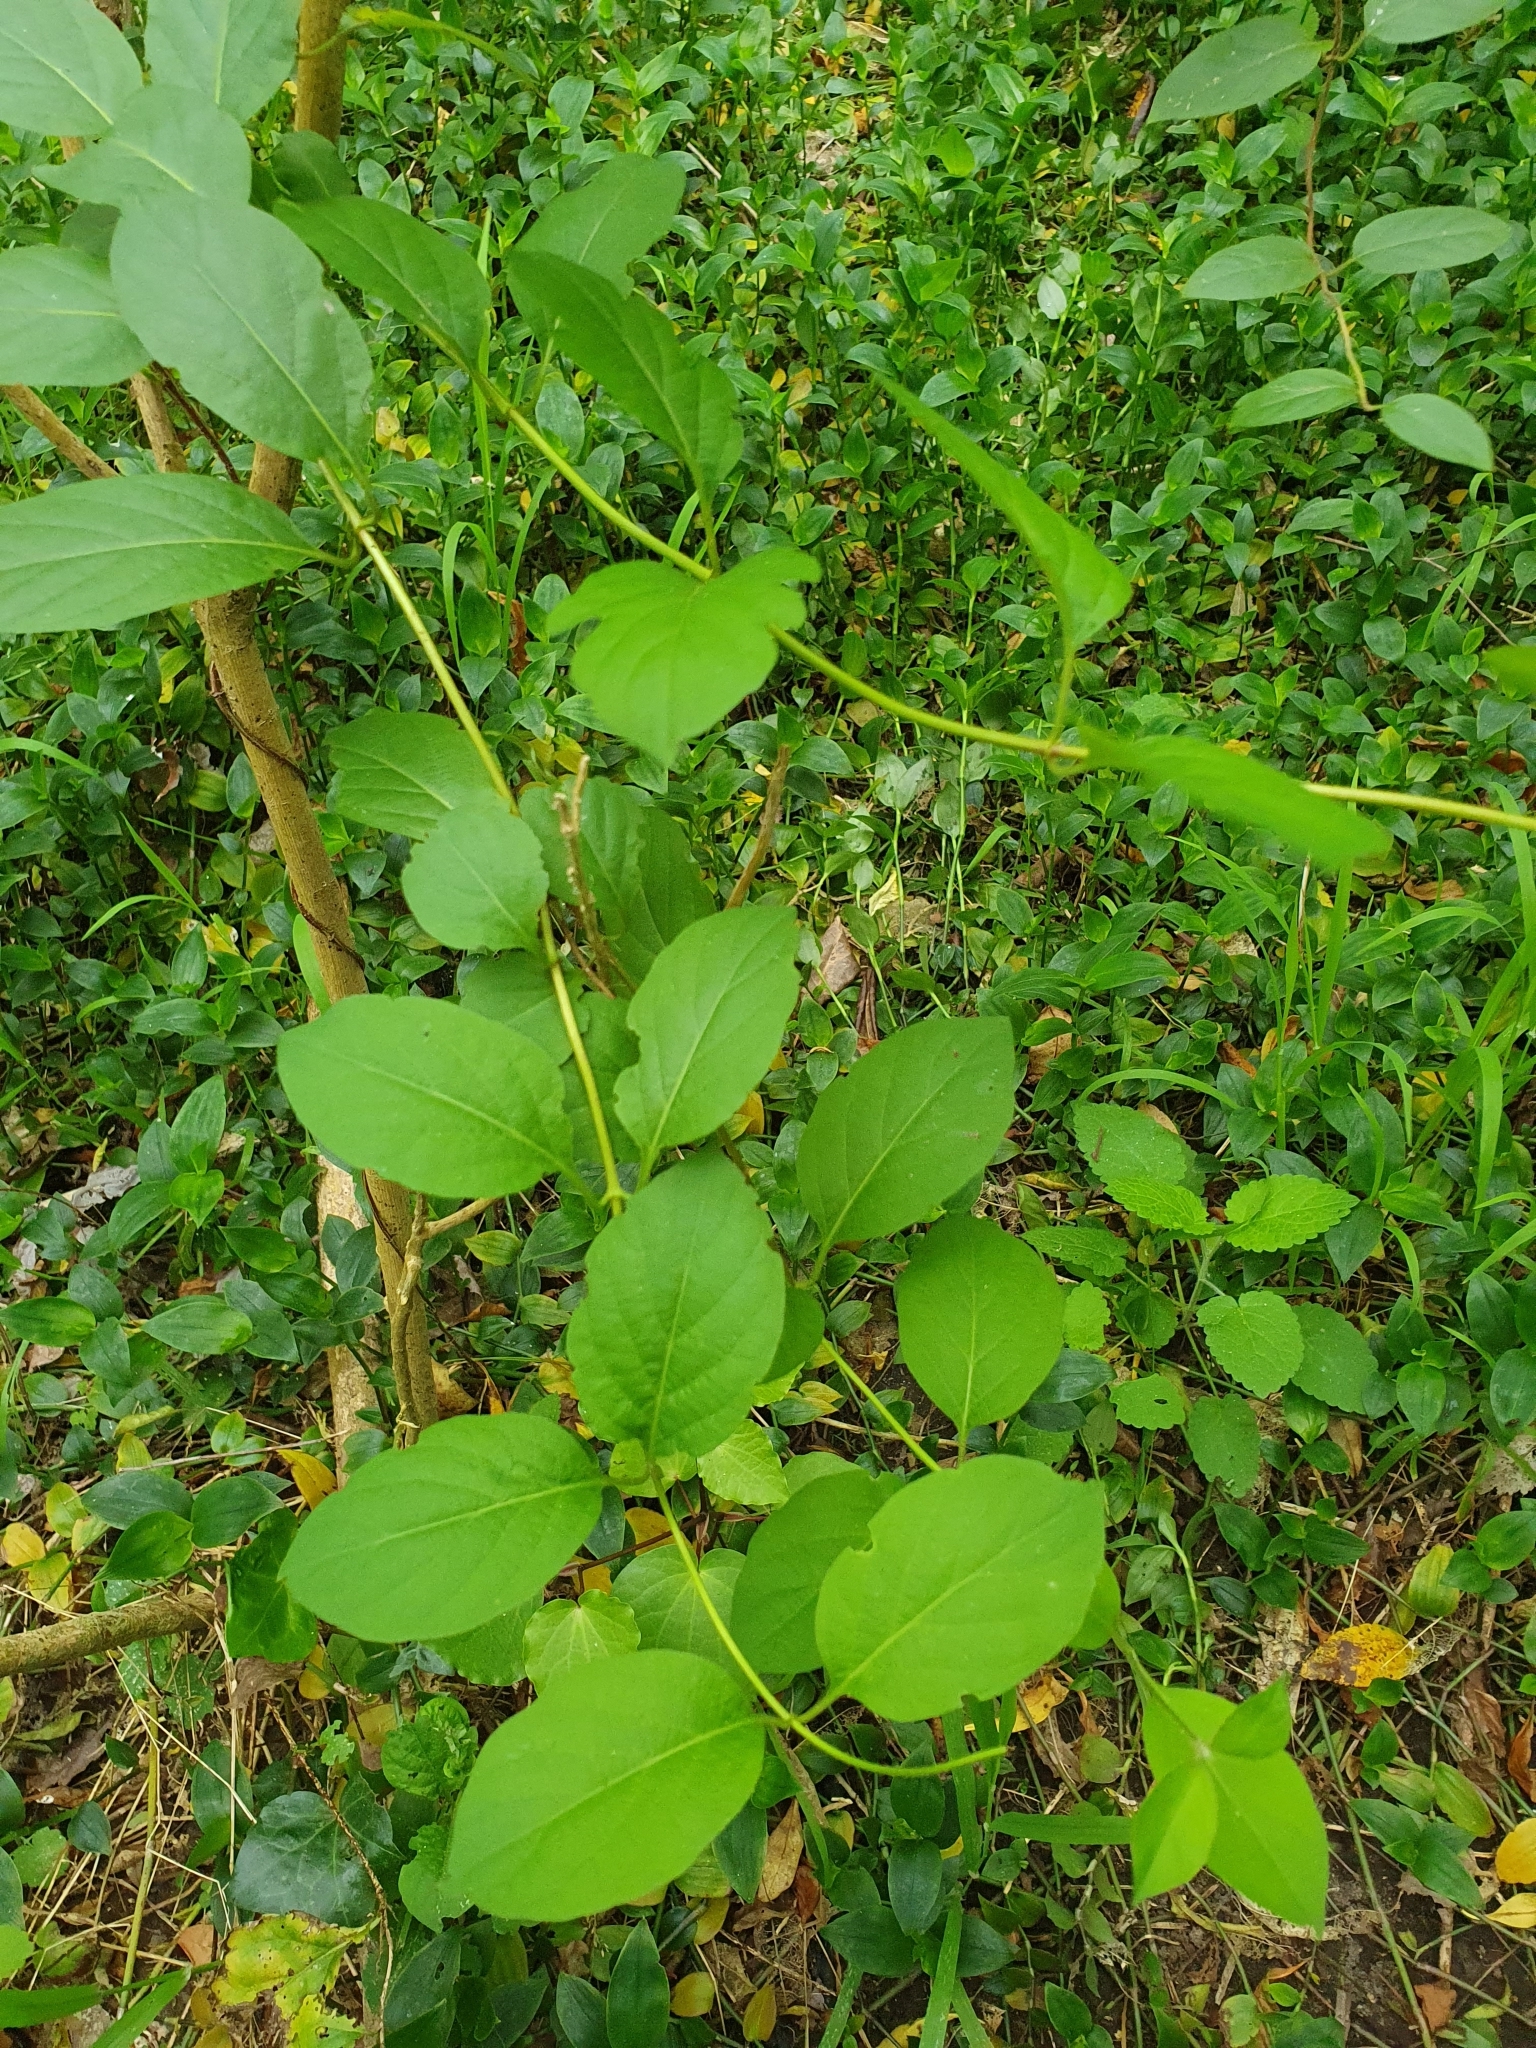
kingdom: Plantae
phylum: Tracheophyta
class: Magnoliopsida
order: Dipsacales
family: Caprifoliaceae
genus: Lonicera
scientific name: Lonicera japonica
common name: Japanese honeysuckle
